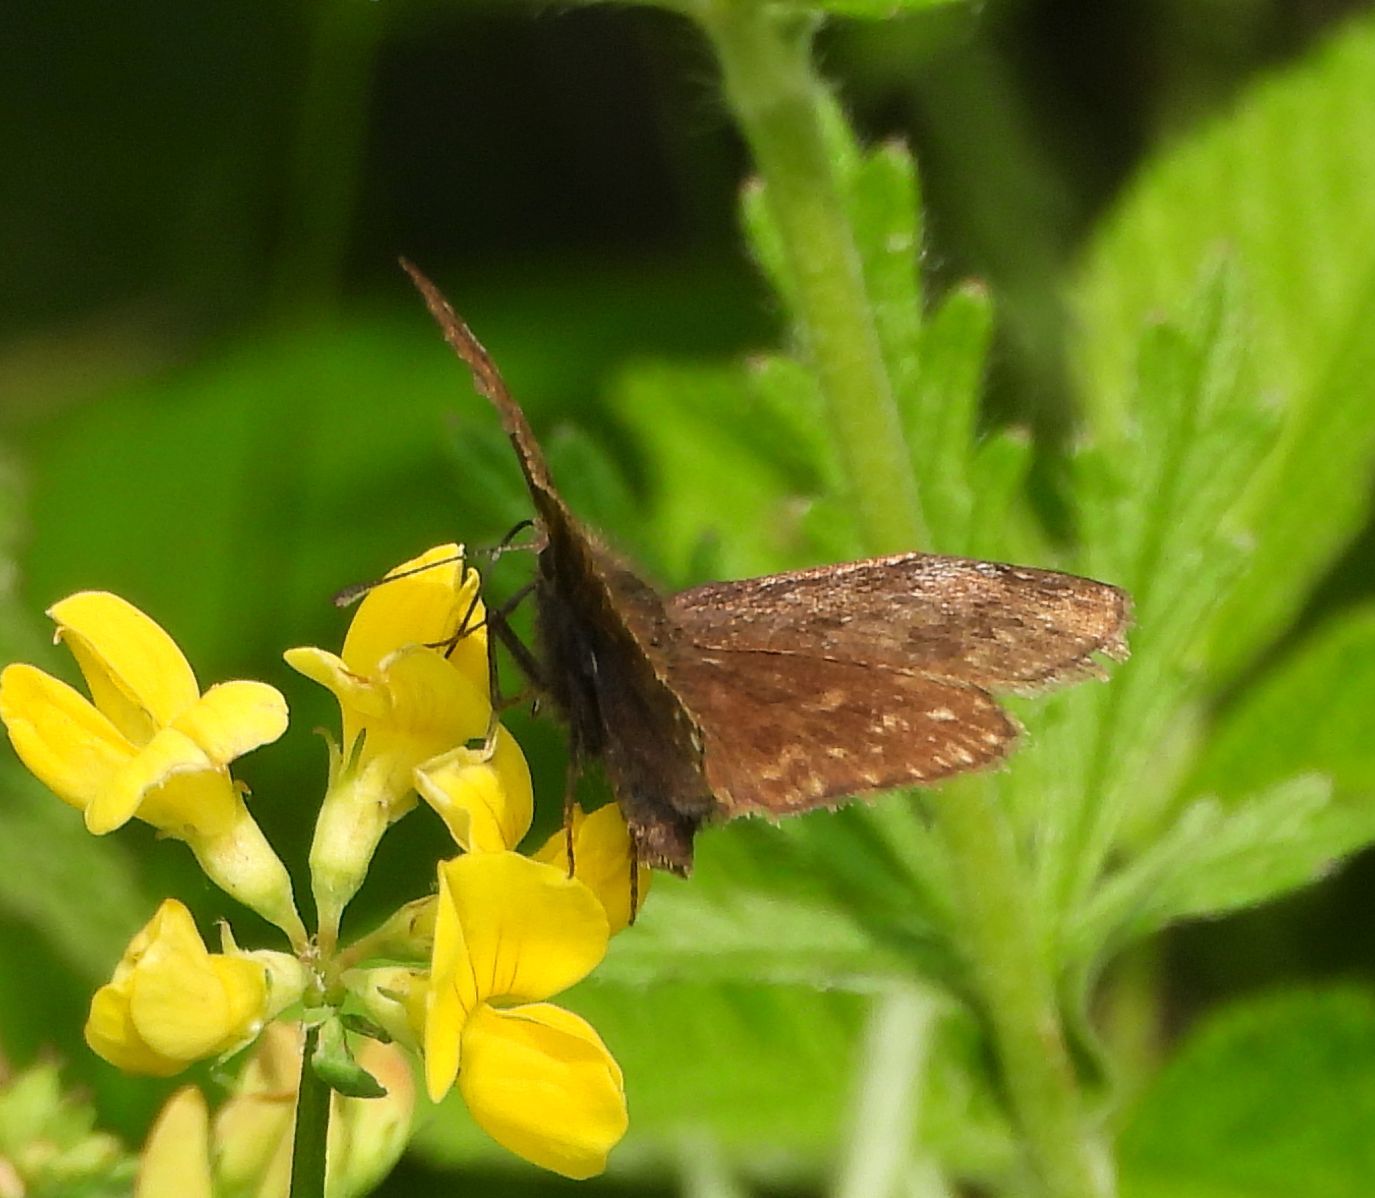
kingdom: Animalia
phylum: Arthropoda
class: Insecta
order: Lepidoptera
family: Hesperiidae
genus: Erynnis
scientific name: Erynnis icelus
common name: Dreamy duskywing
